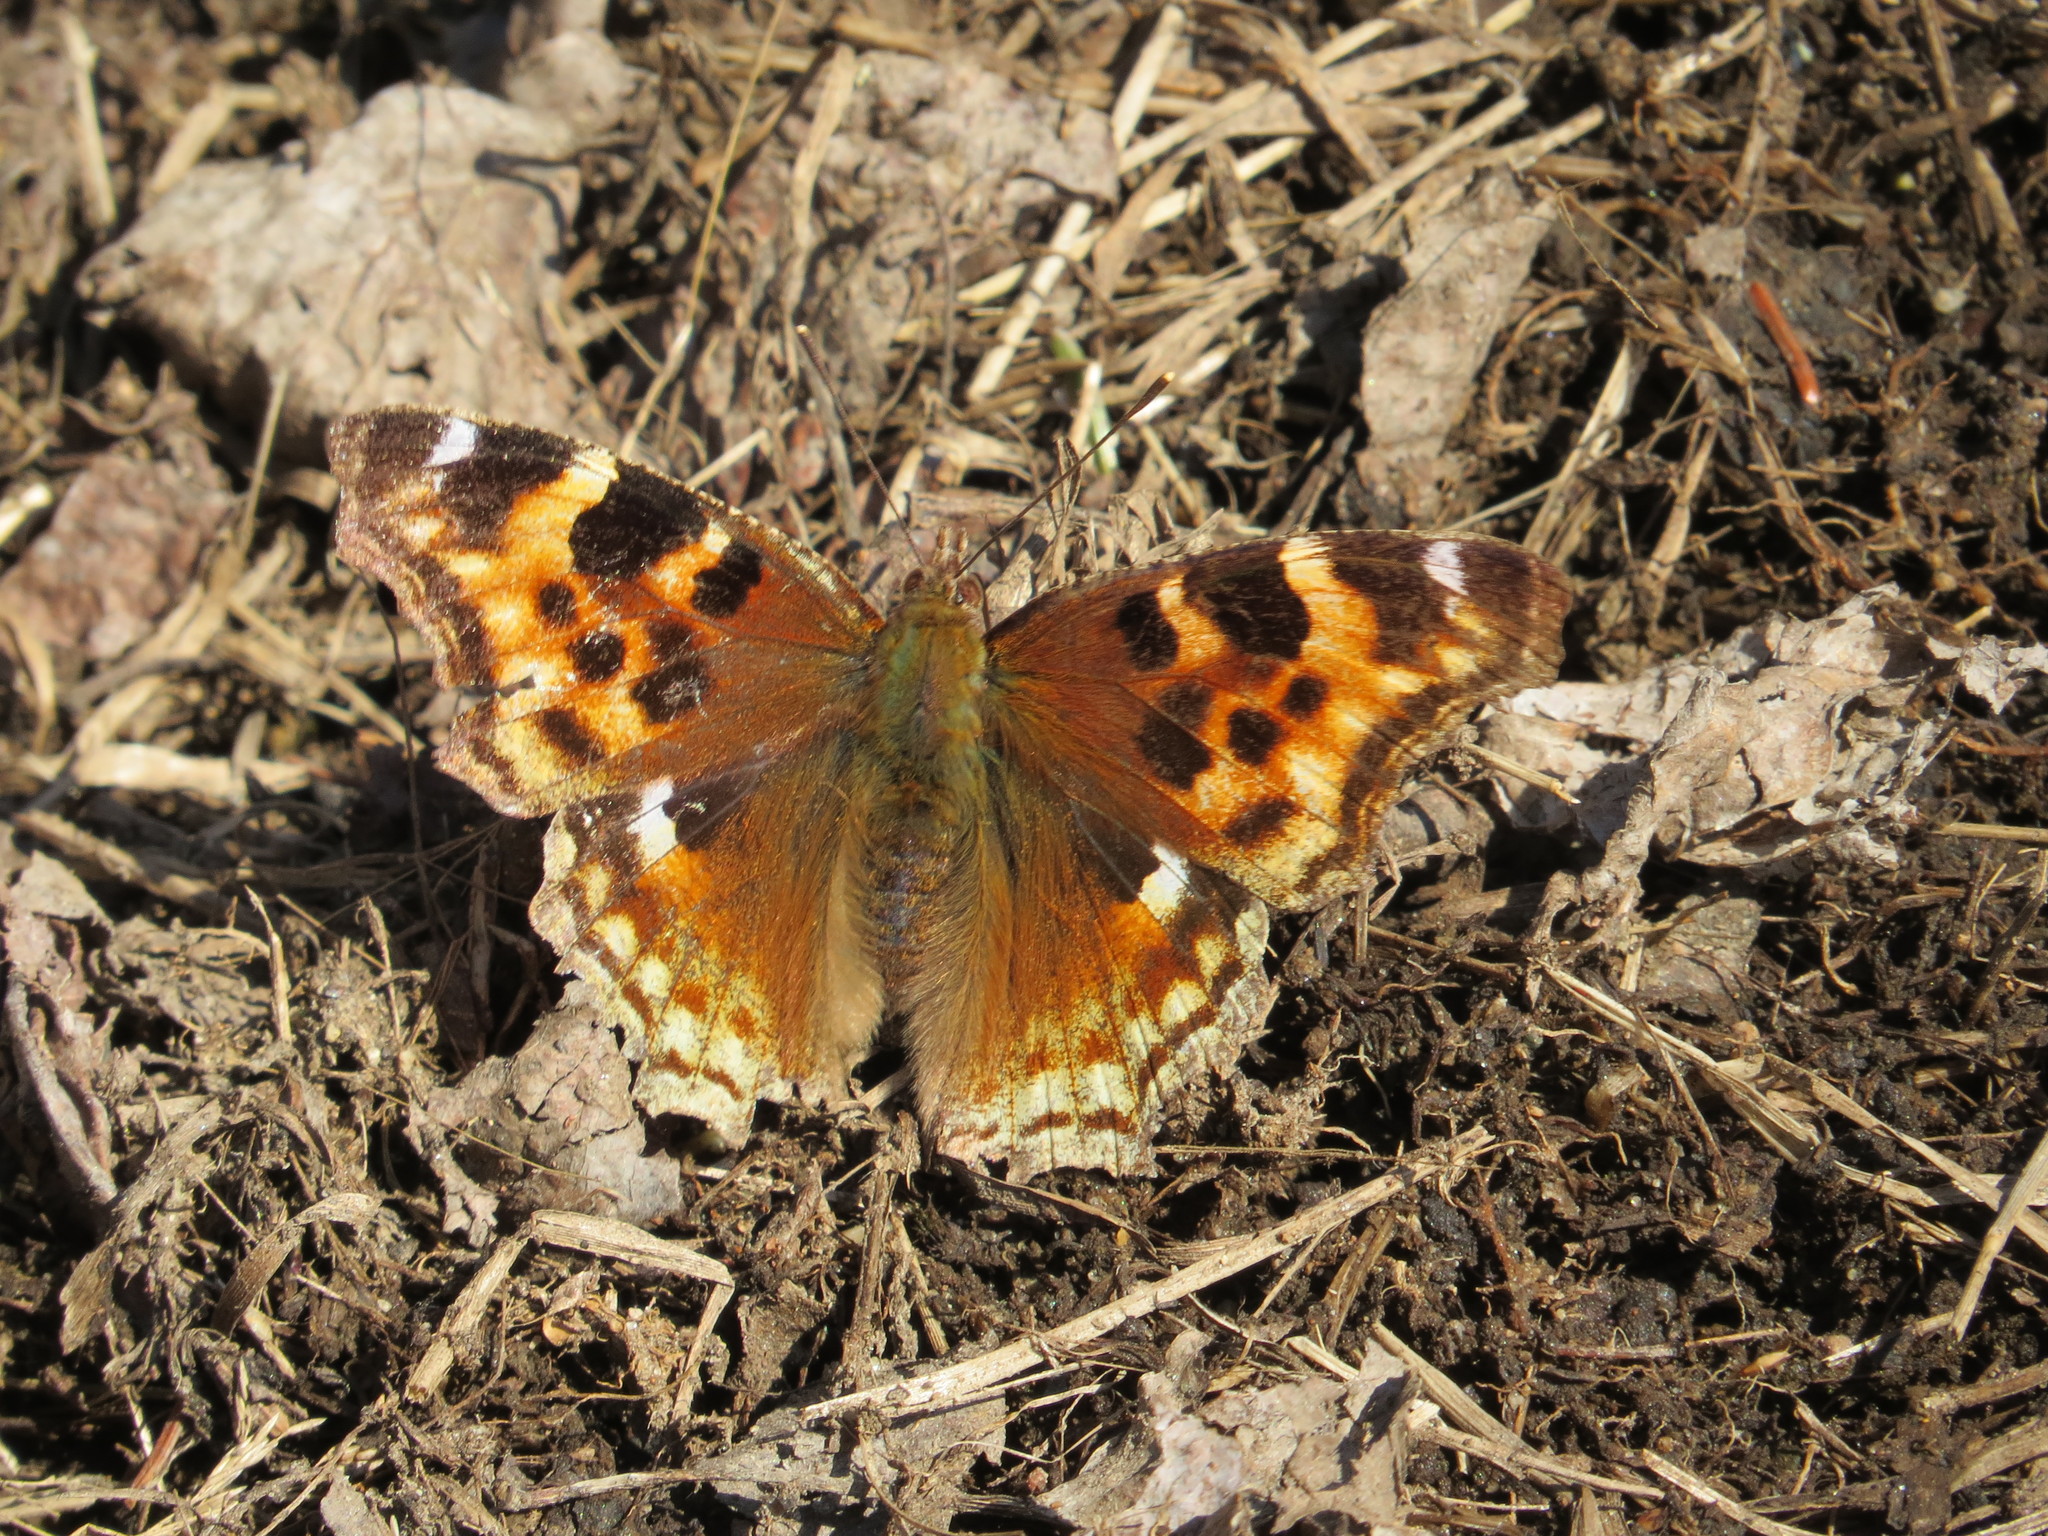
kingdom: Animalia
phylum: Arthropoda
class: Insecta
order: Lepidoptera
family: Nymphalidae
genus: Polygonia
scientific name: Polygonia vaualbum
